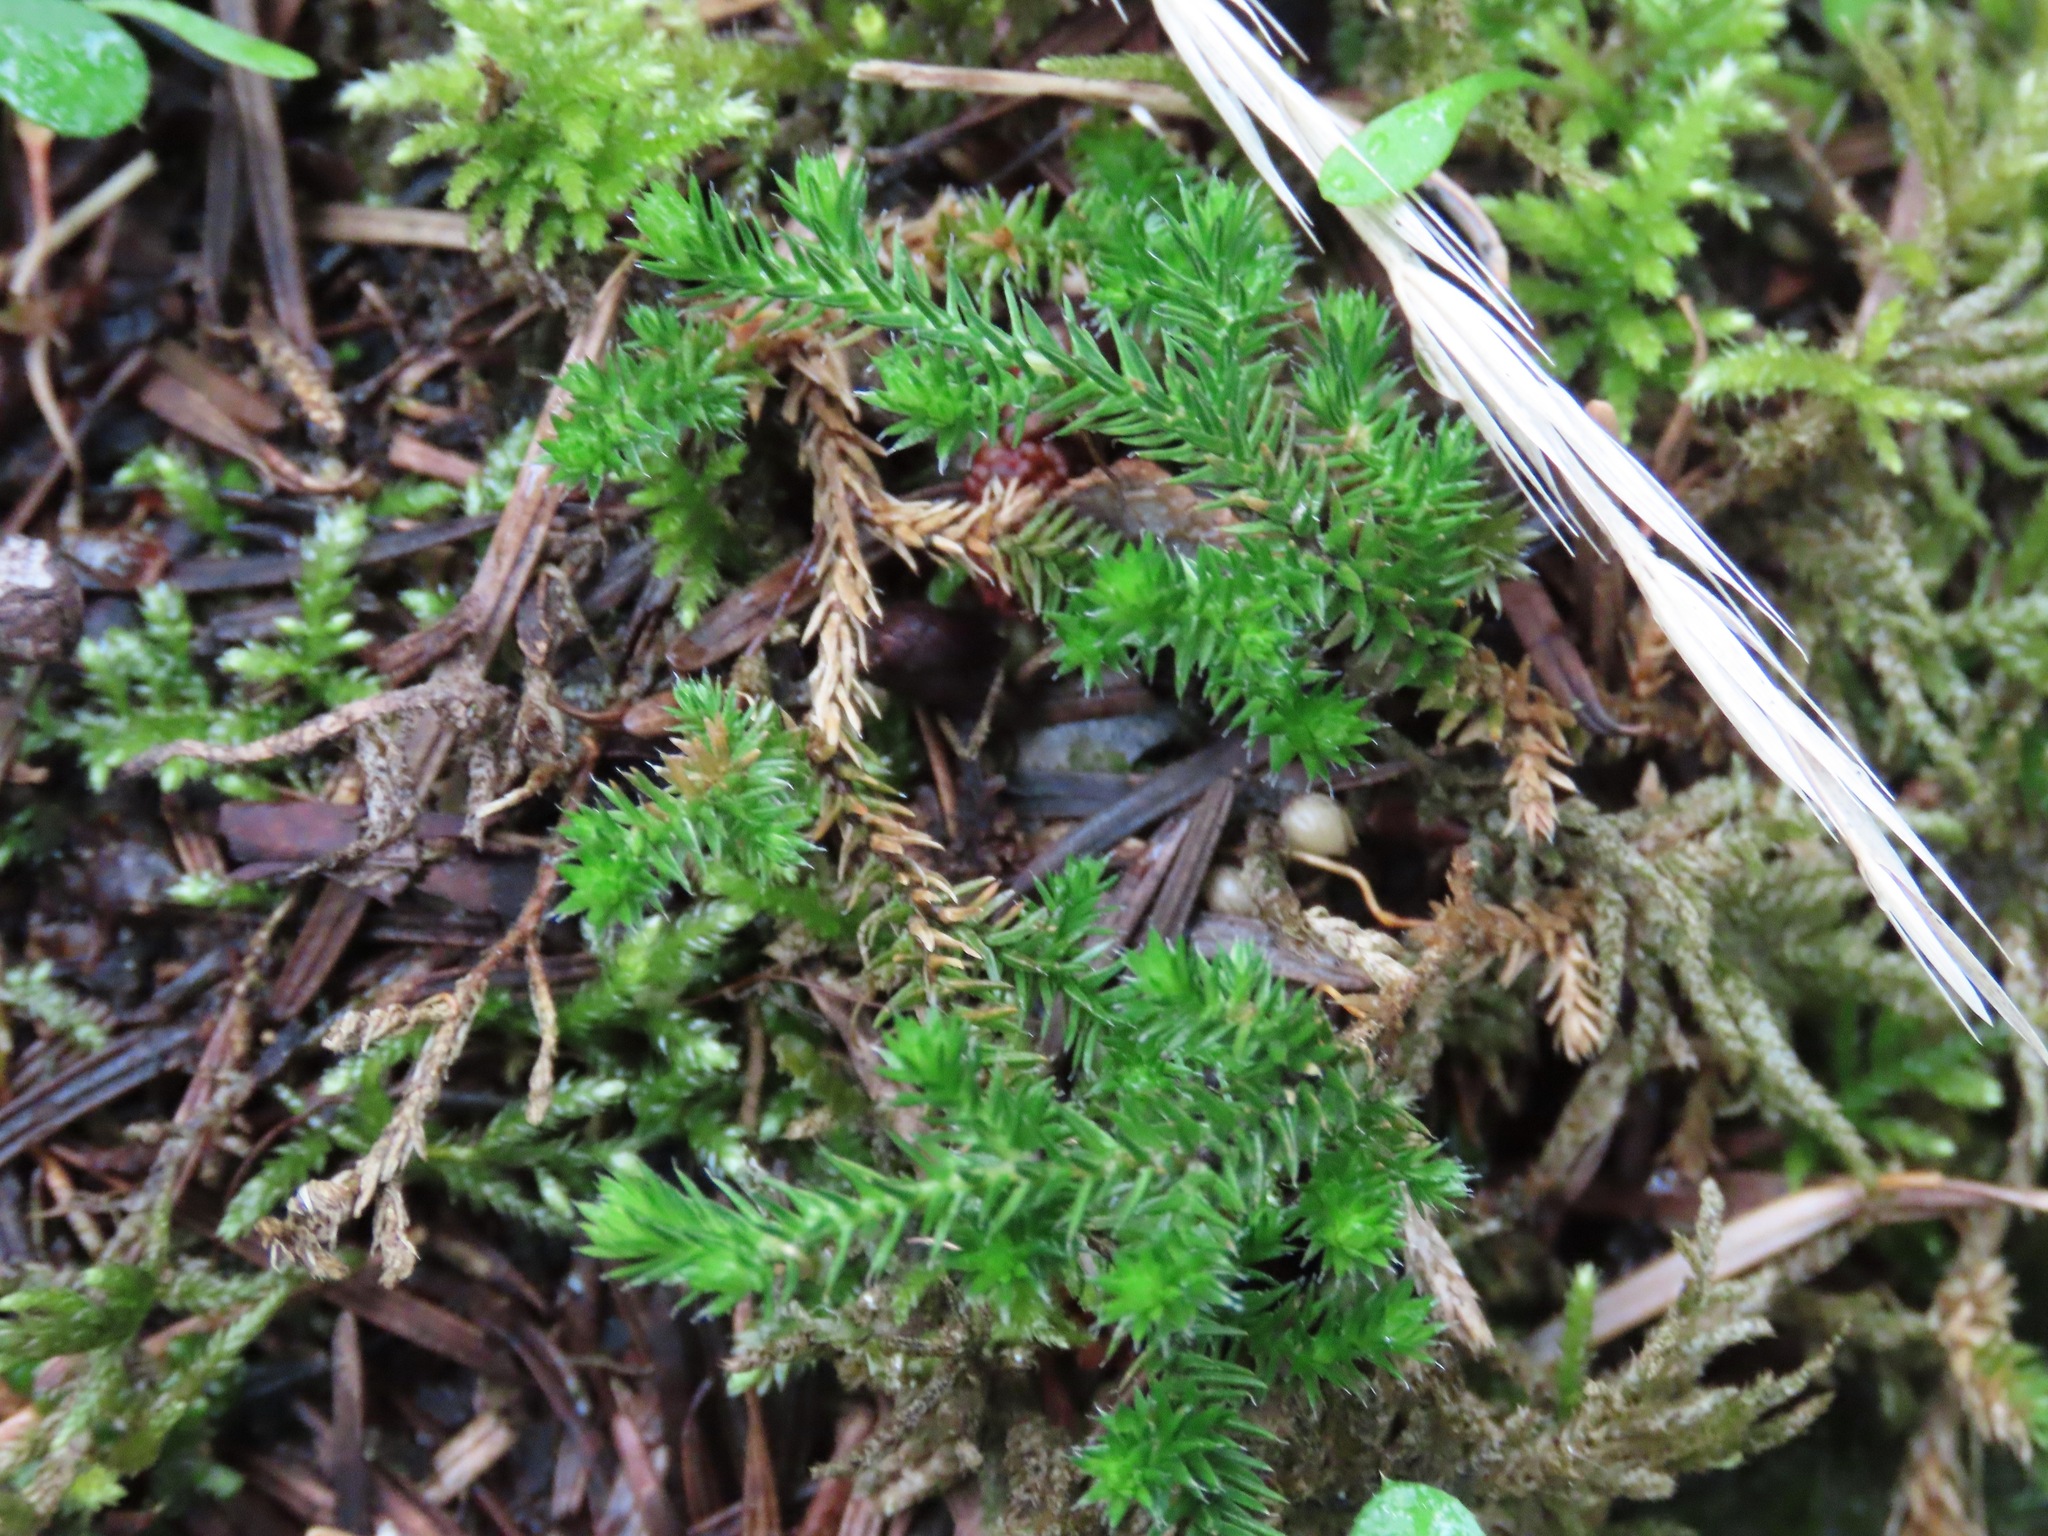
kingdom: Plantae
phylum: Tracheophyta
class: Lycopodiopsida
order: Selaginellales
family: Selaginellaceae
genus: Selaginella
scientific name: Selaginella wallacei
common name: Wallace's selaginella
